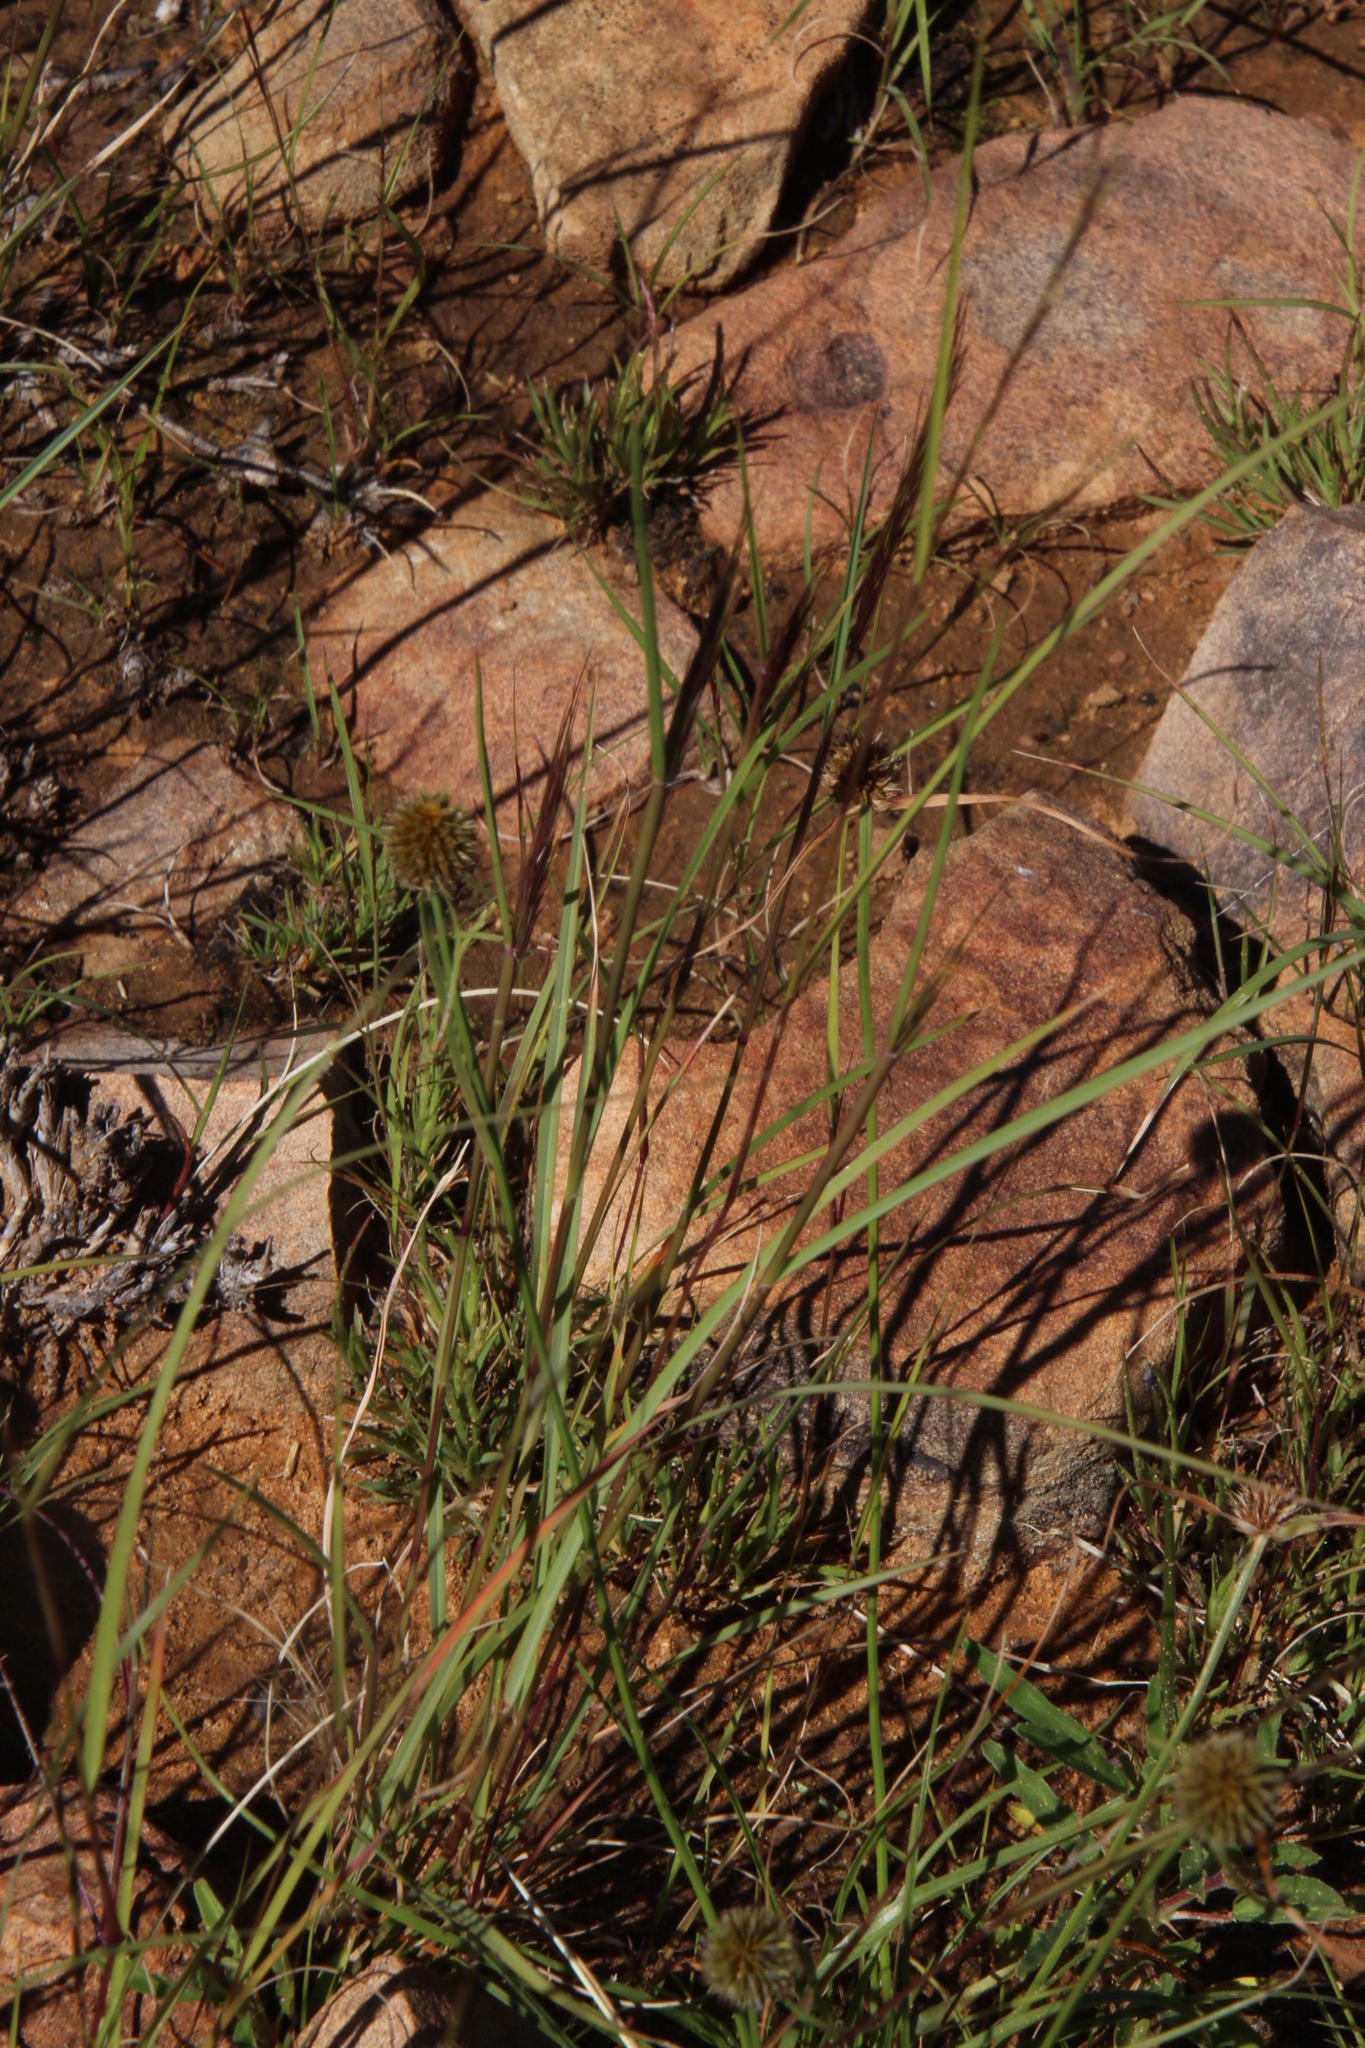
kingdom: Plantae
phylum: Tracheophyta
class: Liliopsida
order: Poales
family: Cyperaceae
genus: Cyperus
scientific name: Cyperus bracheilema
